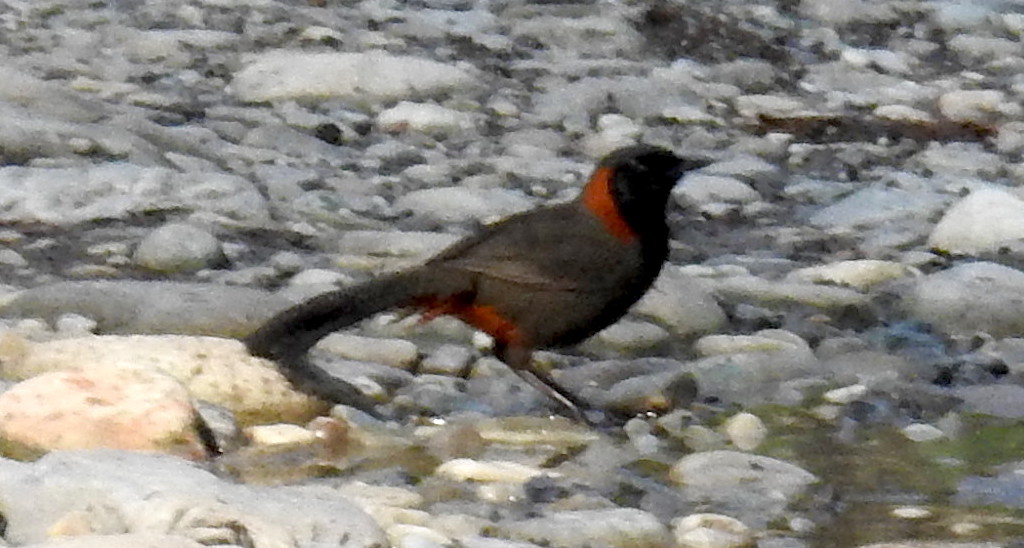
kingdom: Animalia
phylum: Chordata
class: Aves
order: Passeriformes
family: Leiothrichidae
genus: Garrulax
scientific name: Garrulax ruficollis
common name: Rufous-necked laughingthrush
